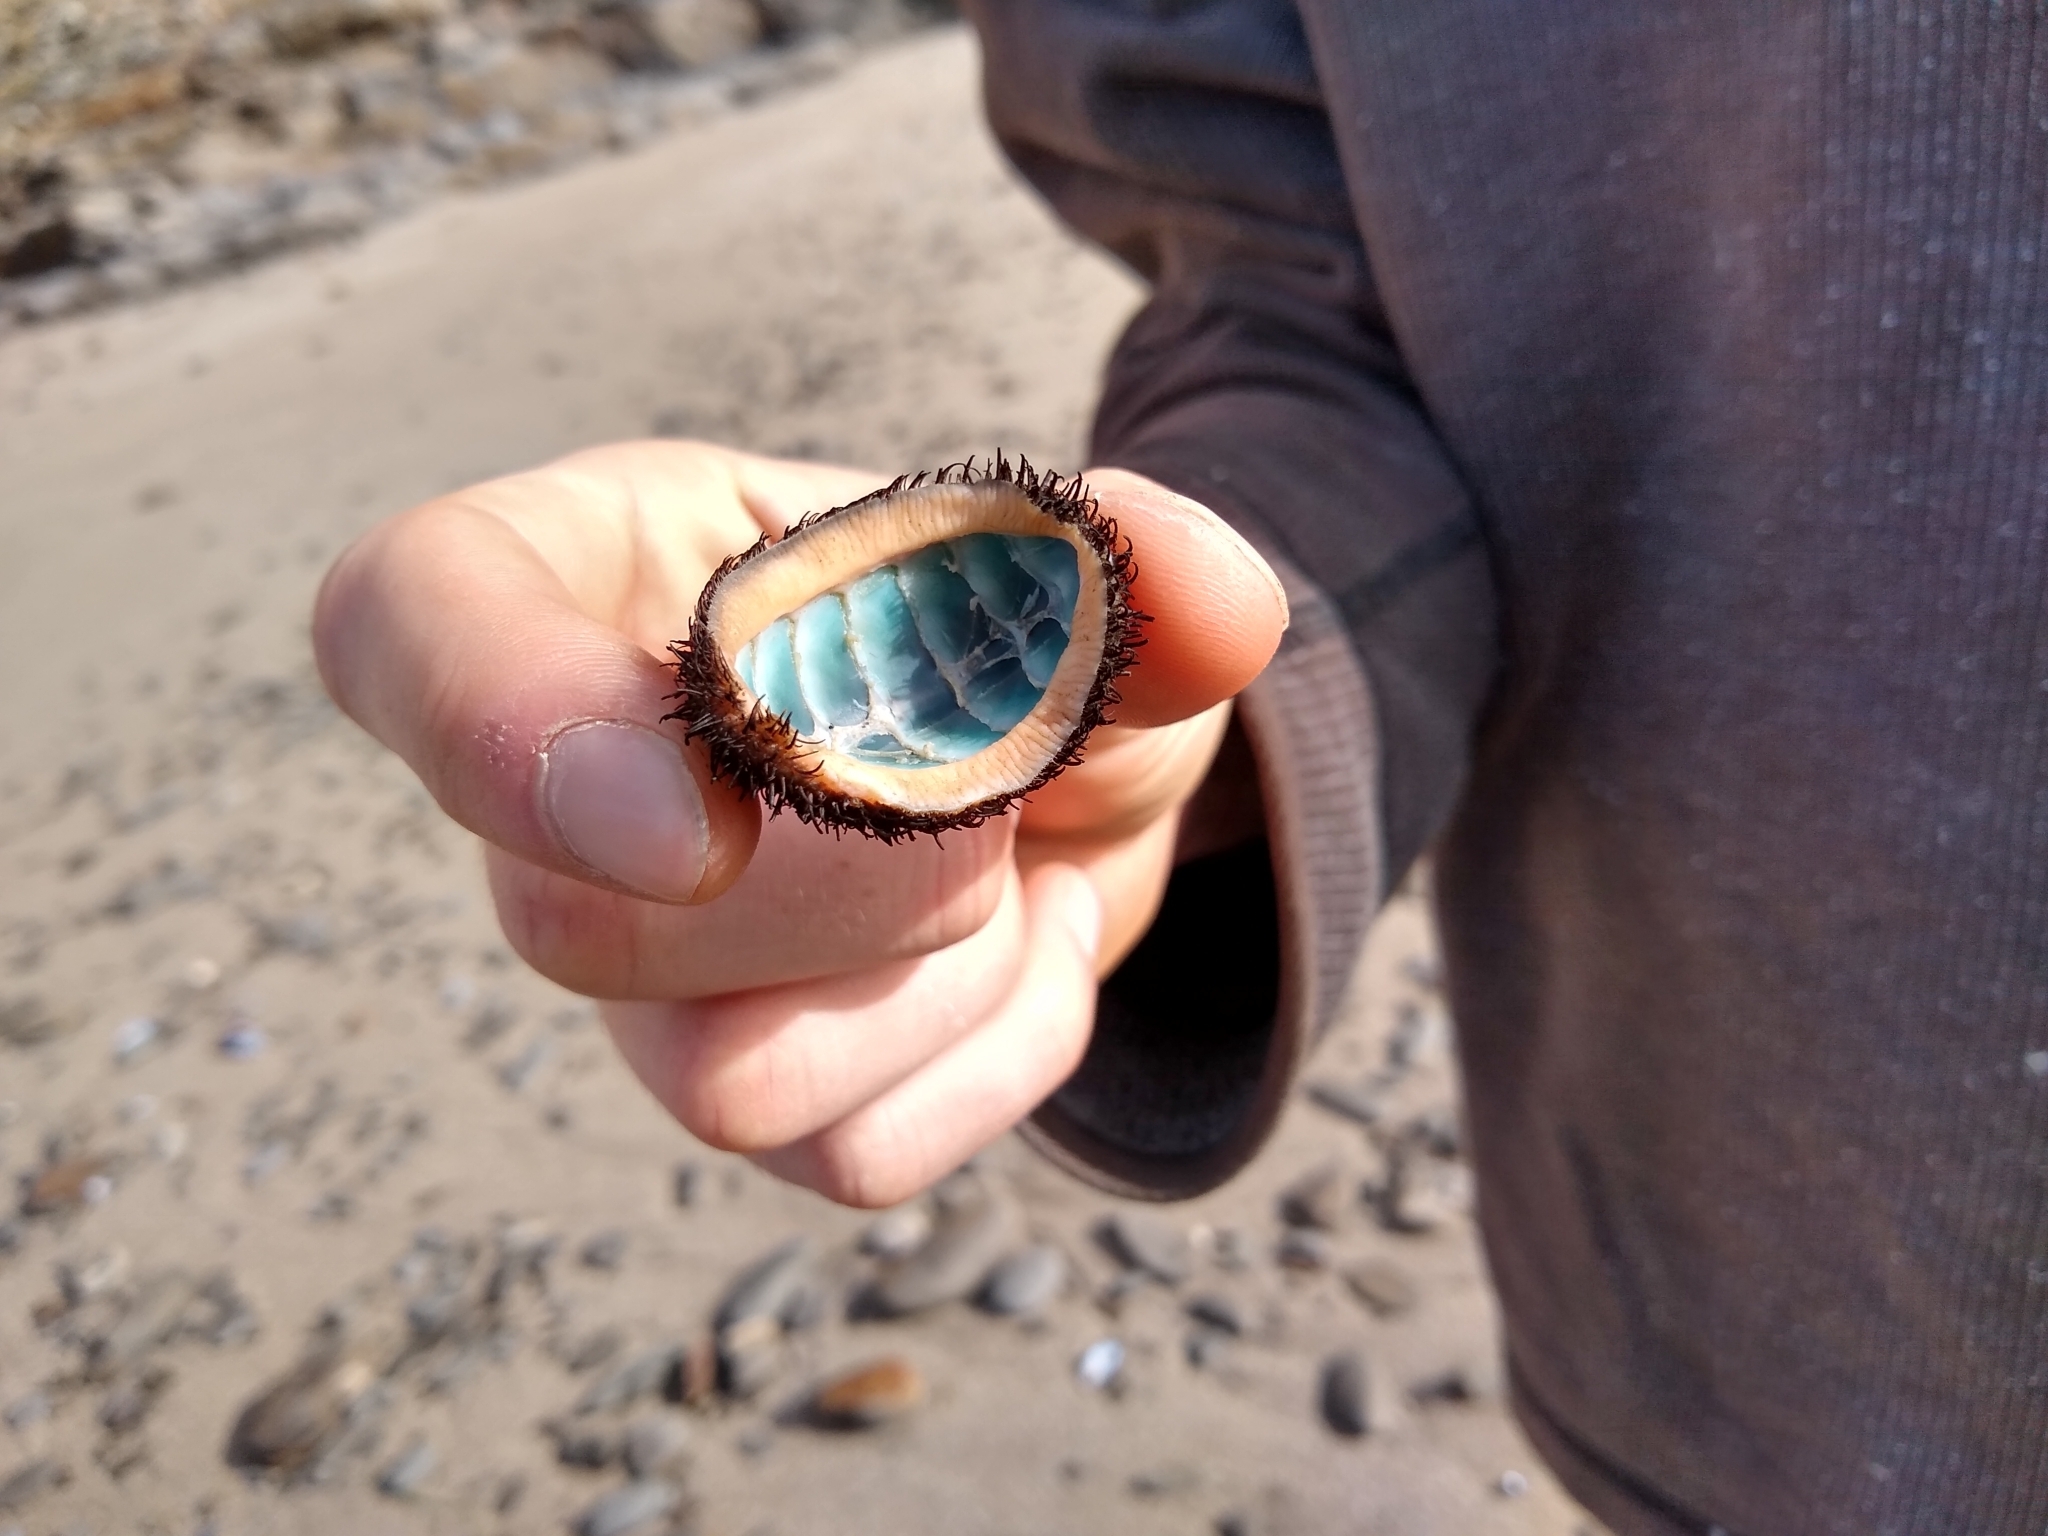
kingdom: Animalia
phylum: Mollusca
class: Polyplacophora
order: Chitonida
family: Mopaliidae
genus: Mopalia
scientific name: Mopalia muscosa
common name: Mossy chiton
